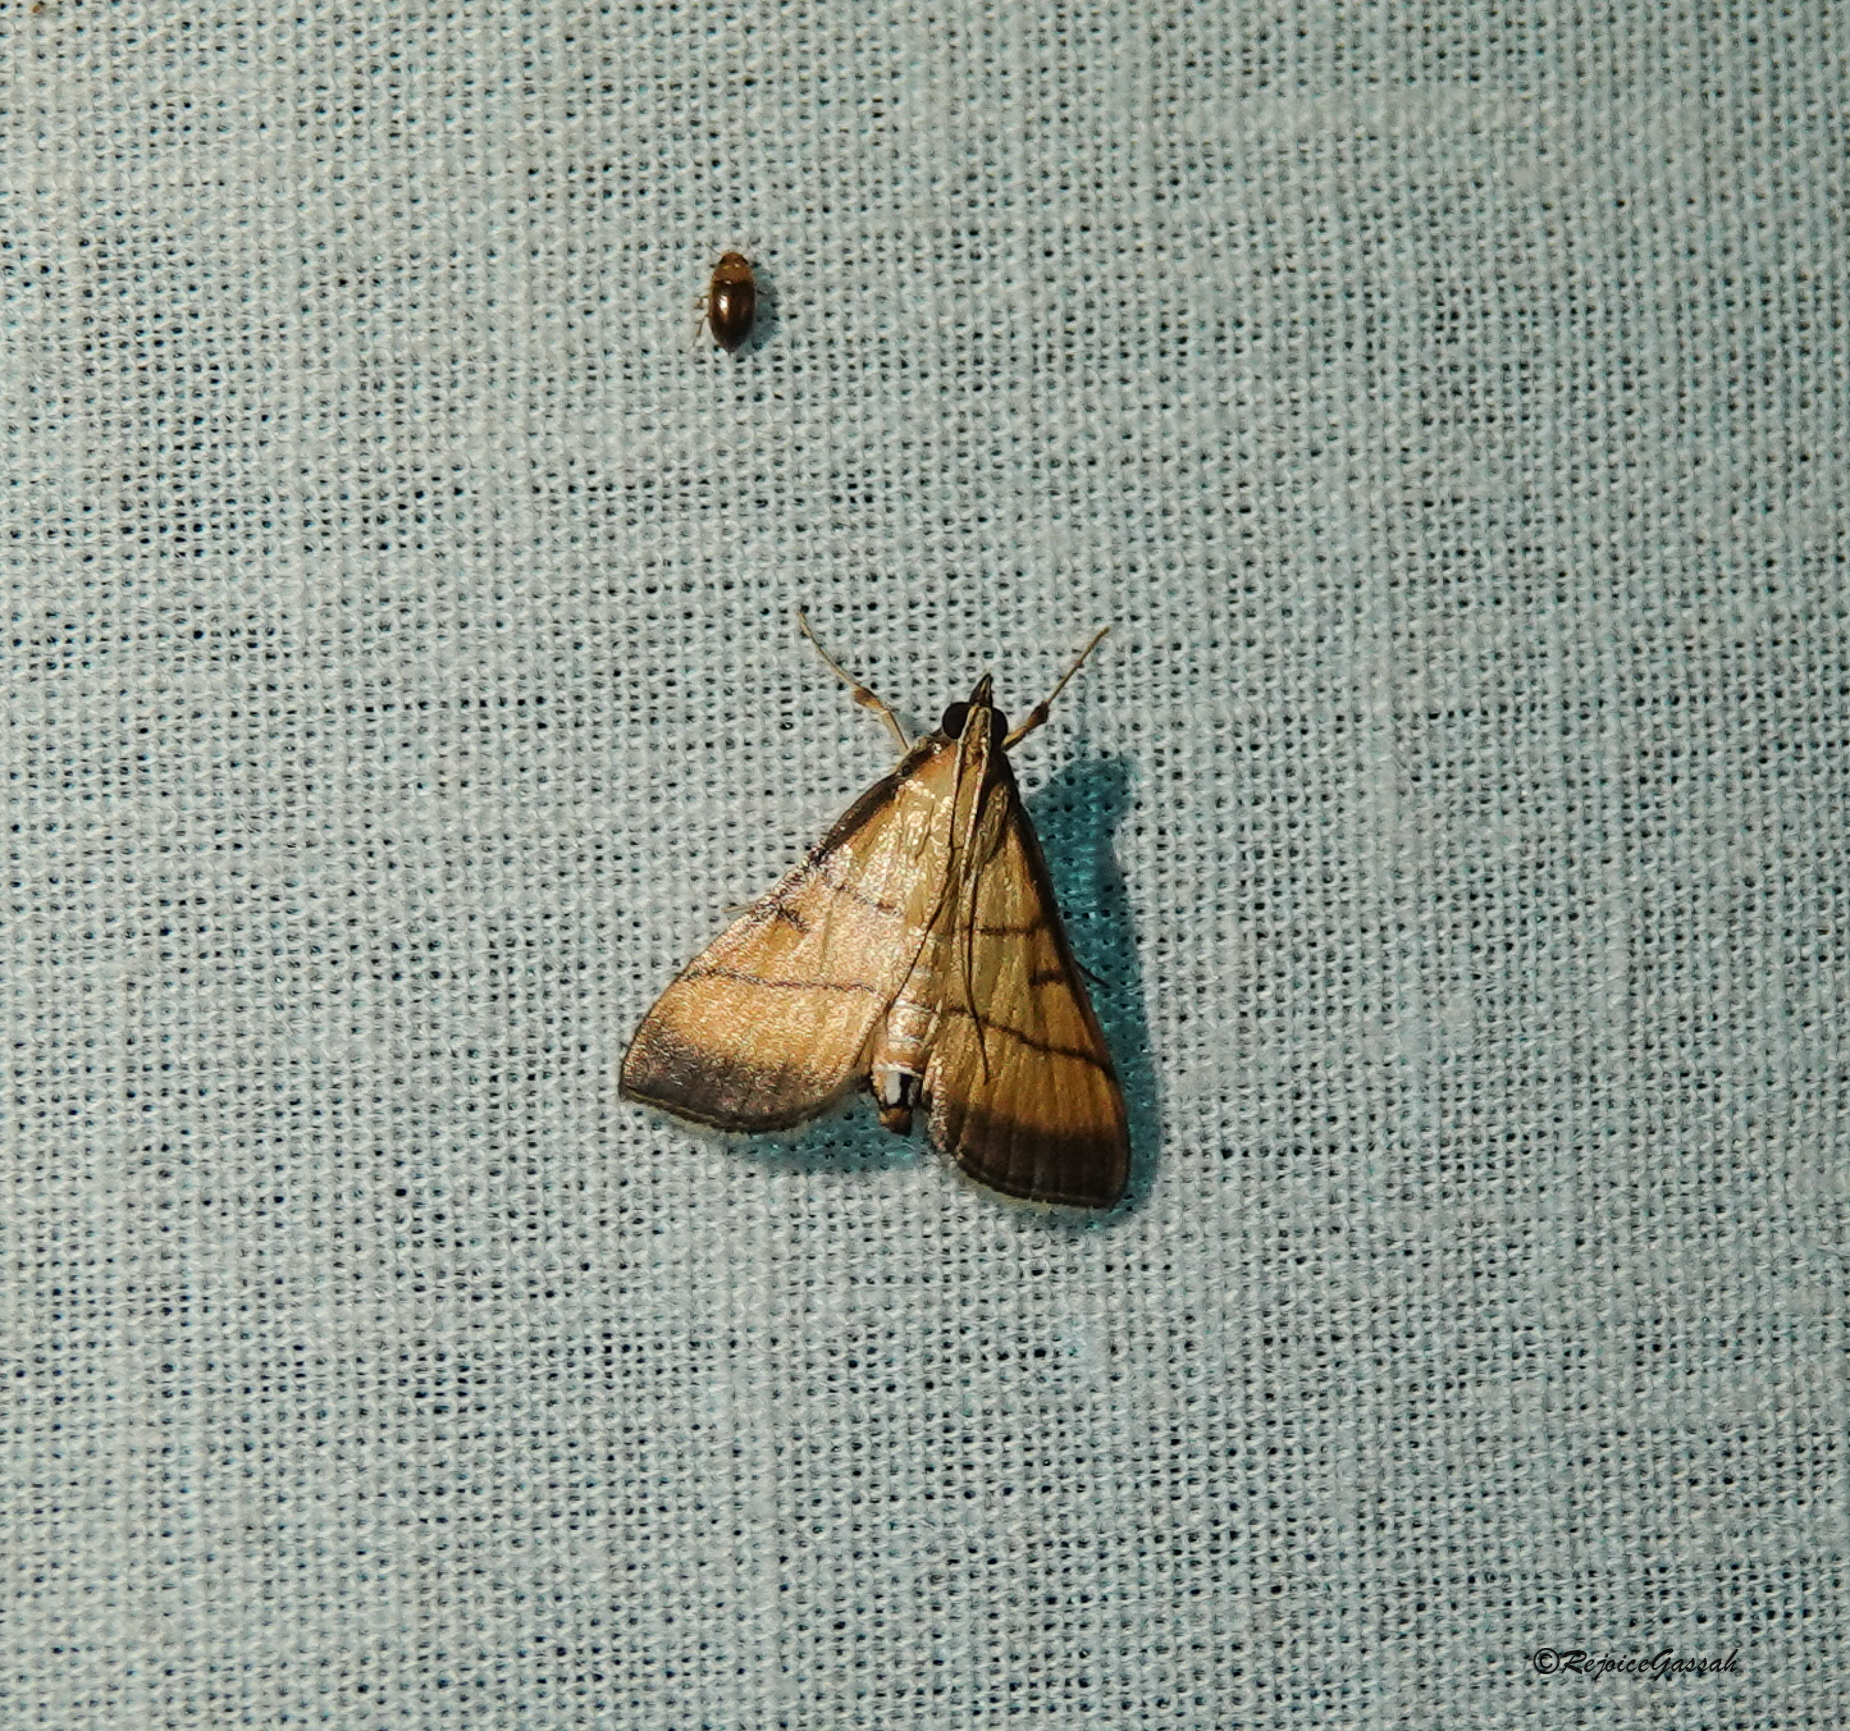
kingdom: Animalia
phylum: Arthropoda
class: Insecta
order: Lepidoptera
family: Crambidae
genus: Cnaphalocrocis
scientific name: Cnaphalocrocis medinalis
